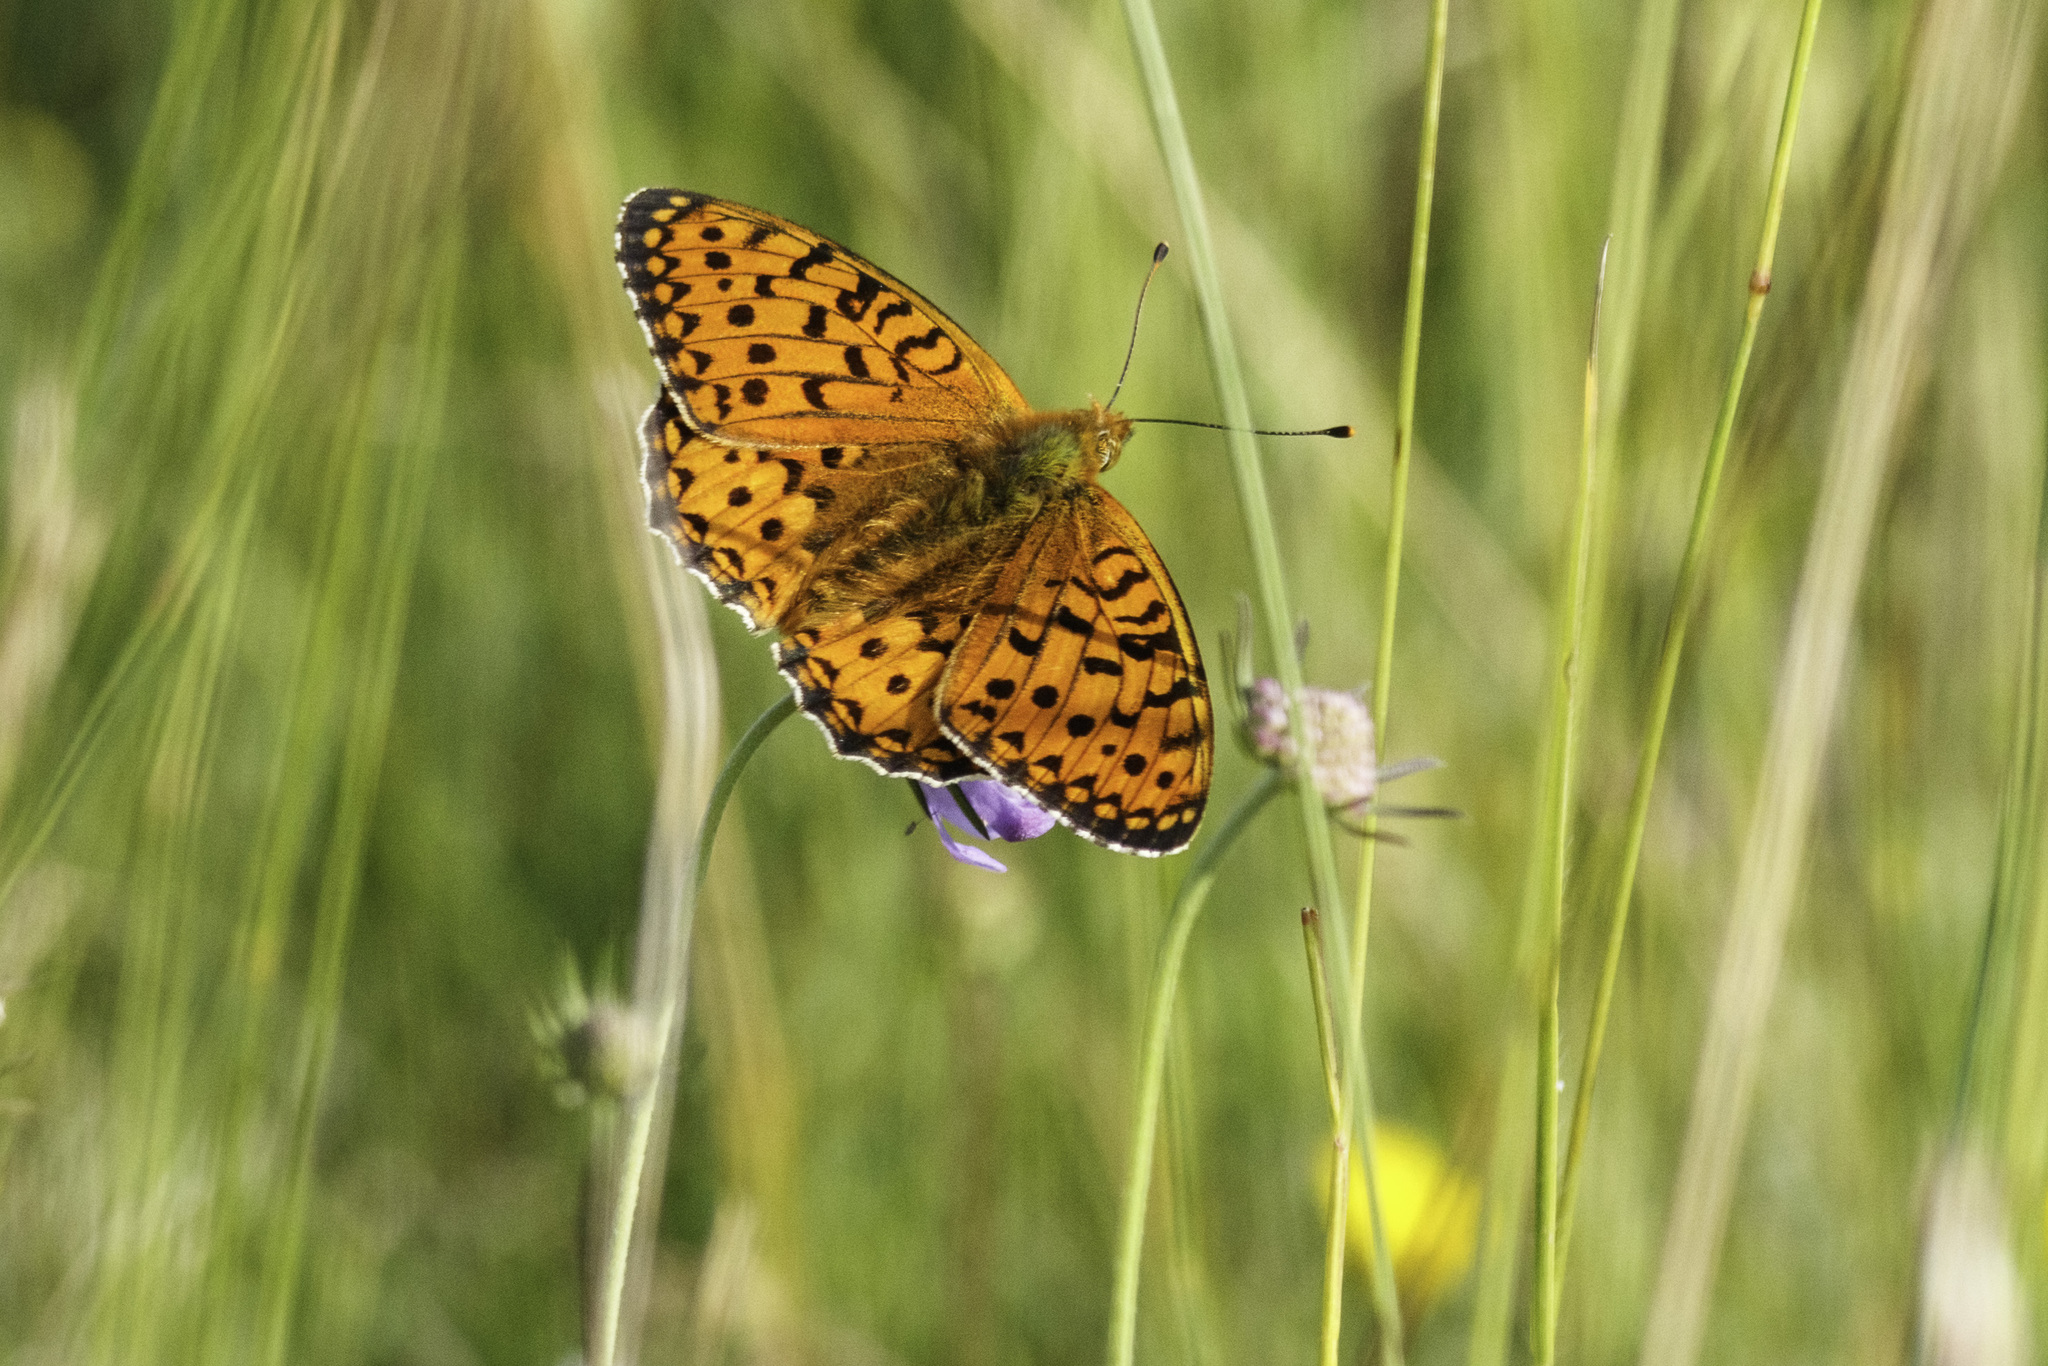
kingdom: Animalia
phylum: Arthropoda
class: Insecta
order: Lepidoptera
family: Nymphalidae
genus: Speyeria
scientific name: Speyeria aglaja
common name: Dark green fritillary
